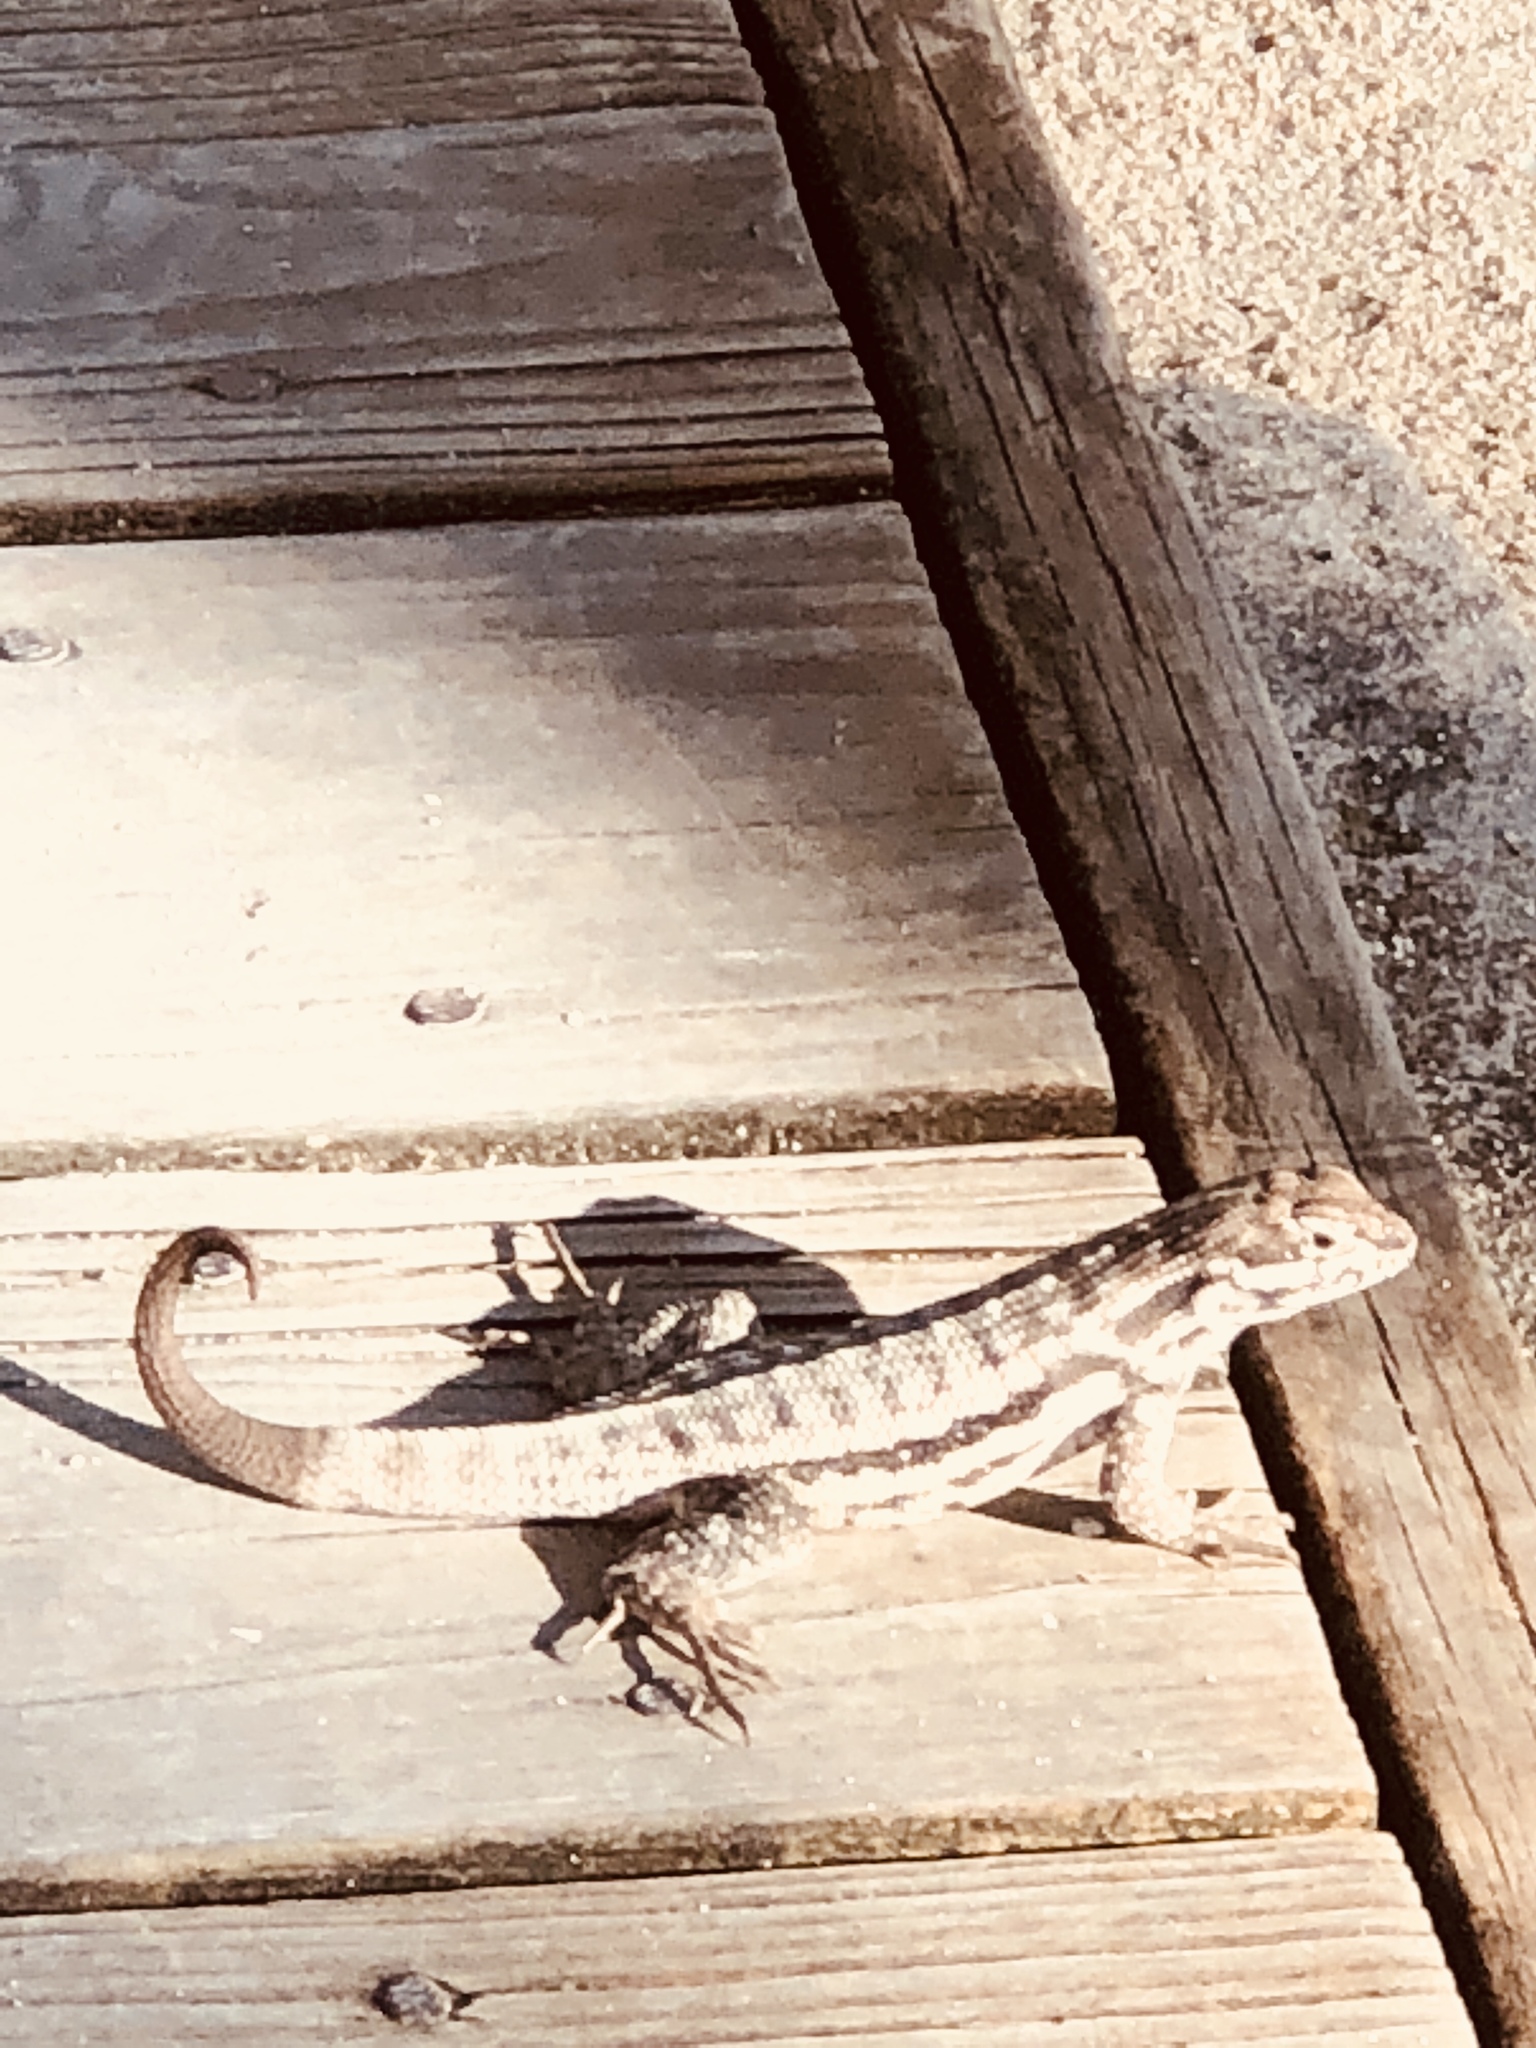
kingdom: Animalia
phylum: Chordata
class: Squamata
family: Leiocephalidae
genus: Leiocephalus
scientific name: Leiocephalus carinatus
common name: Northern curly-tailed lizard
